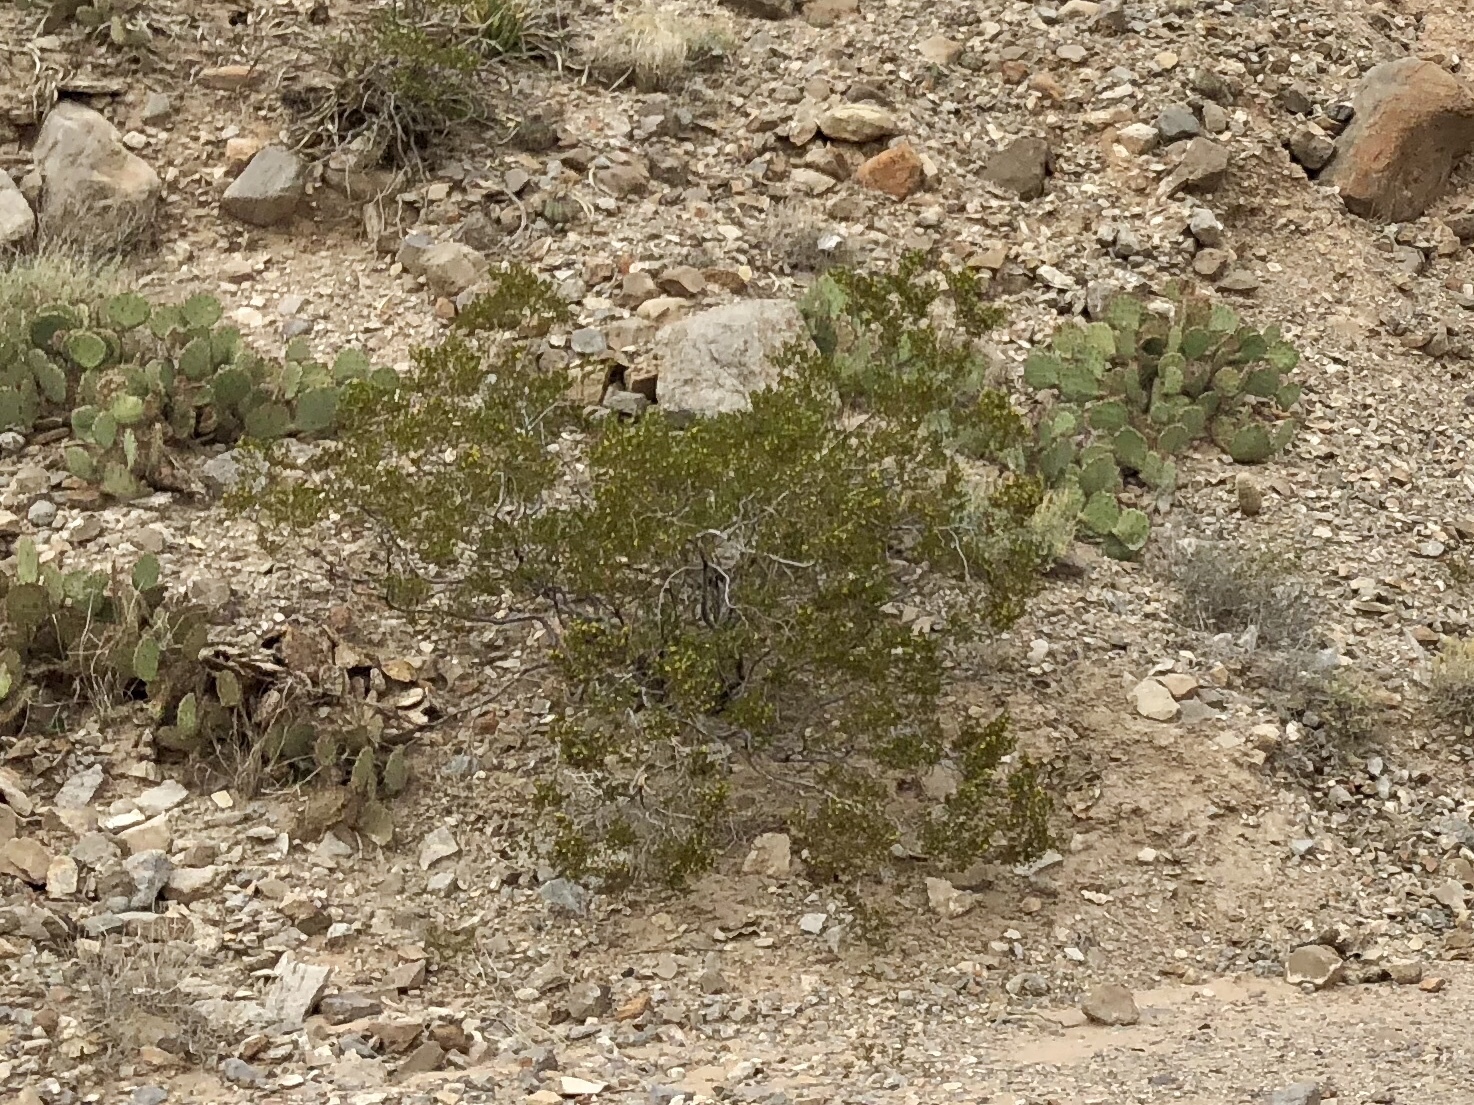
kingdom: Plantae
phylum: Tracheophyta
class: Magnoliopsida
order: Zygophyllales
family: Zygophyllaceae
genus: Larrea
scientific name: Larrea tridentata
